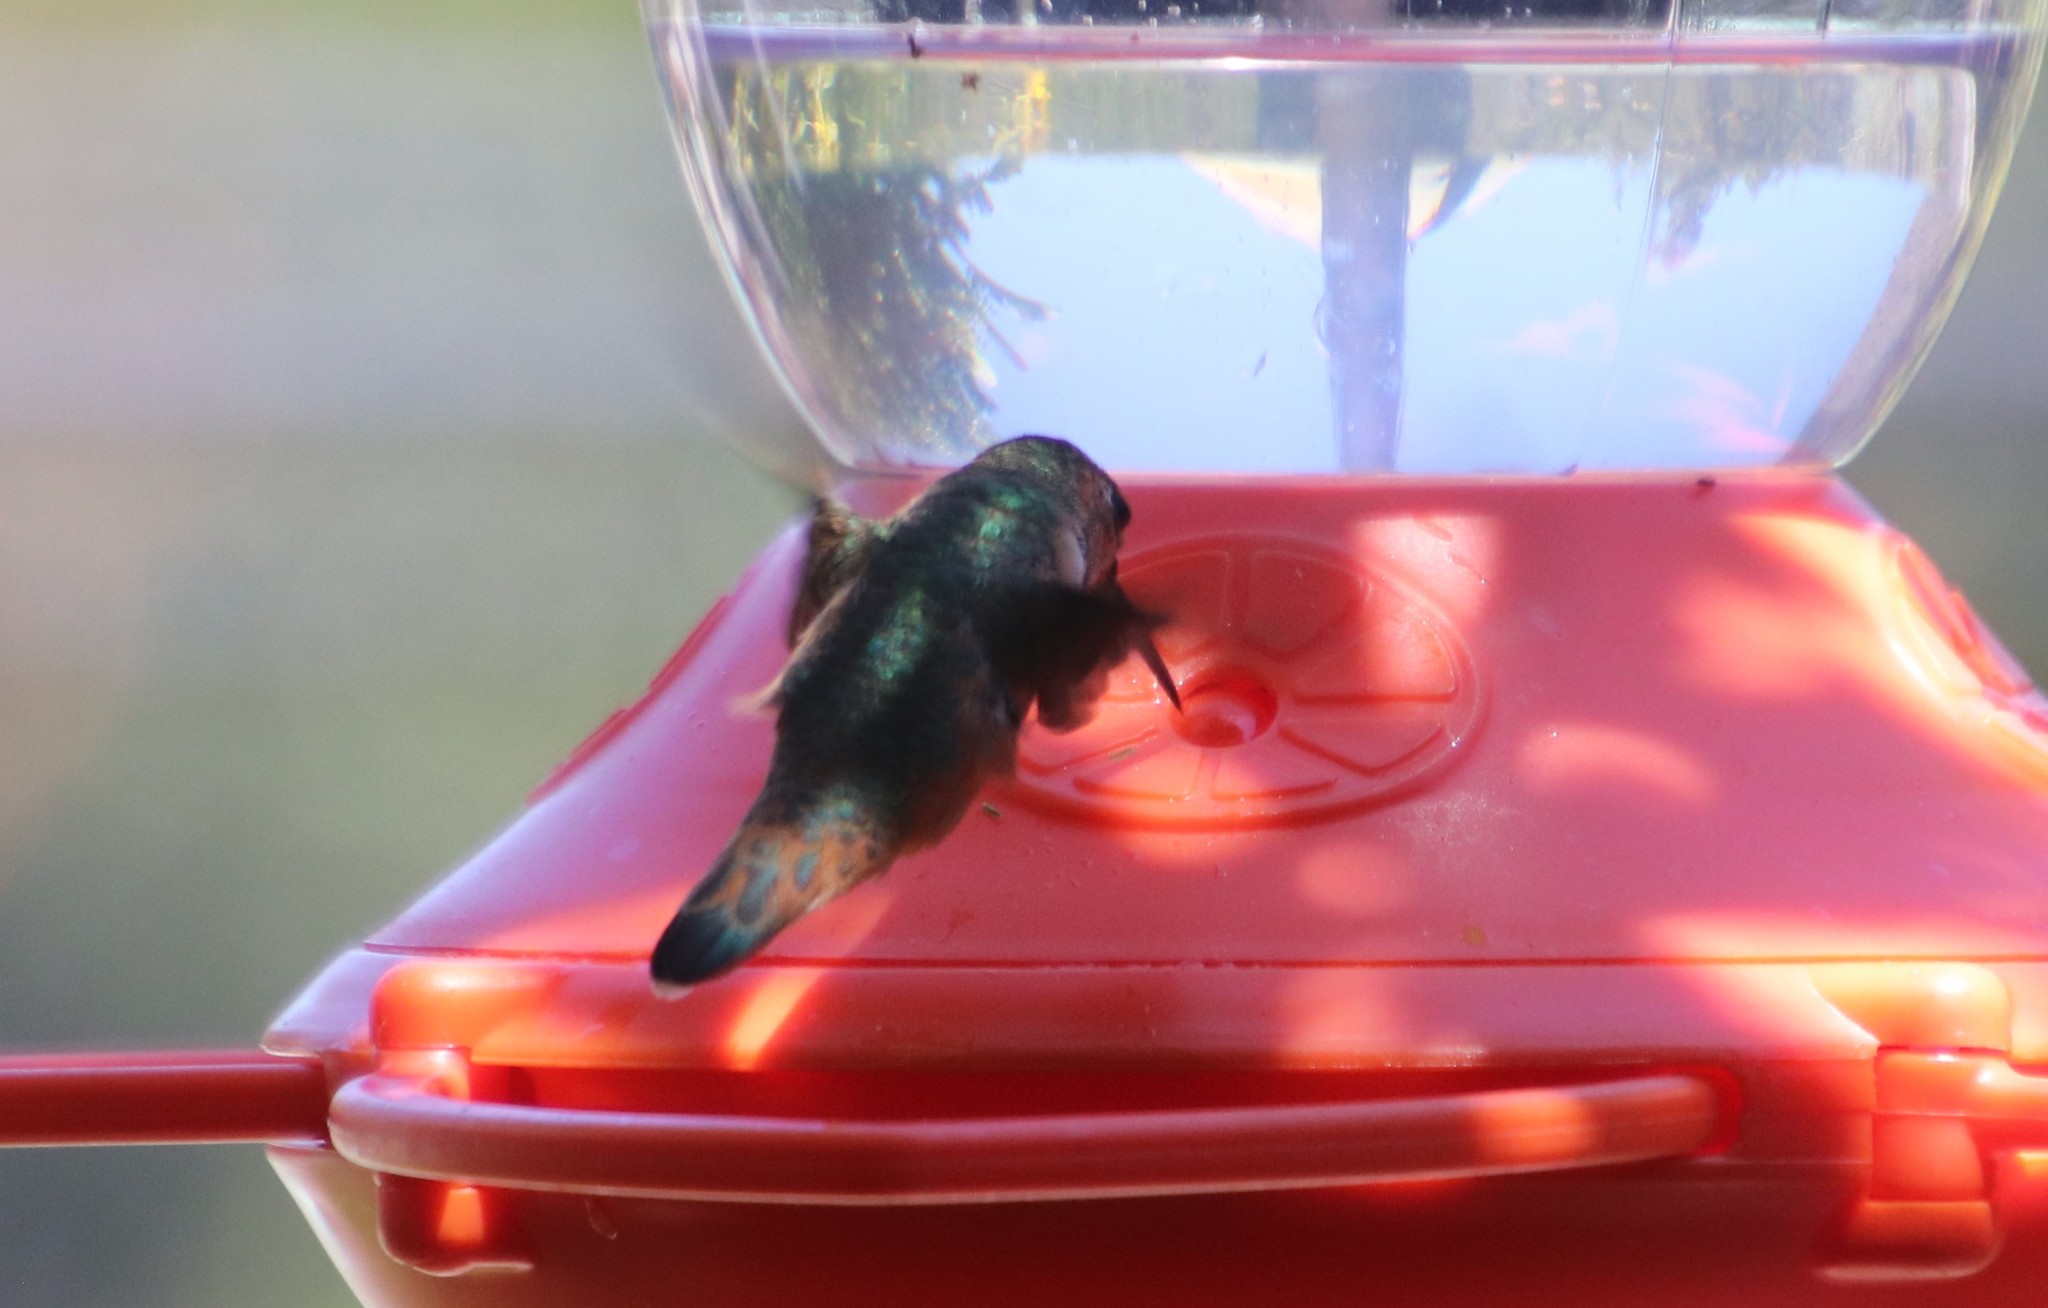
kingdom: Animalia
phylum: Chordata
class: Aves
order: Apodiformes
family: Trochilidae
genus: Selasphorus
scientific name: Selasphorus
